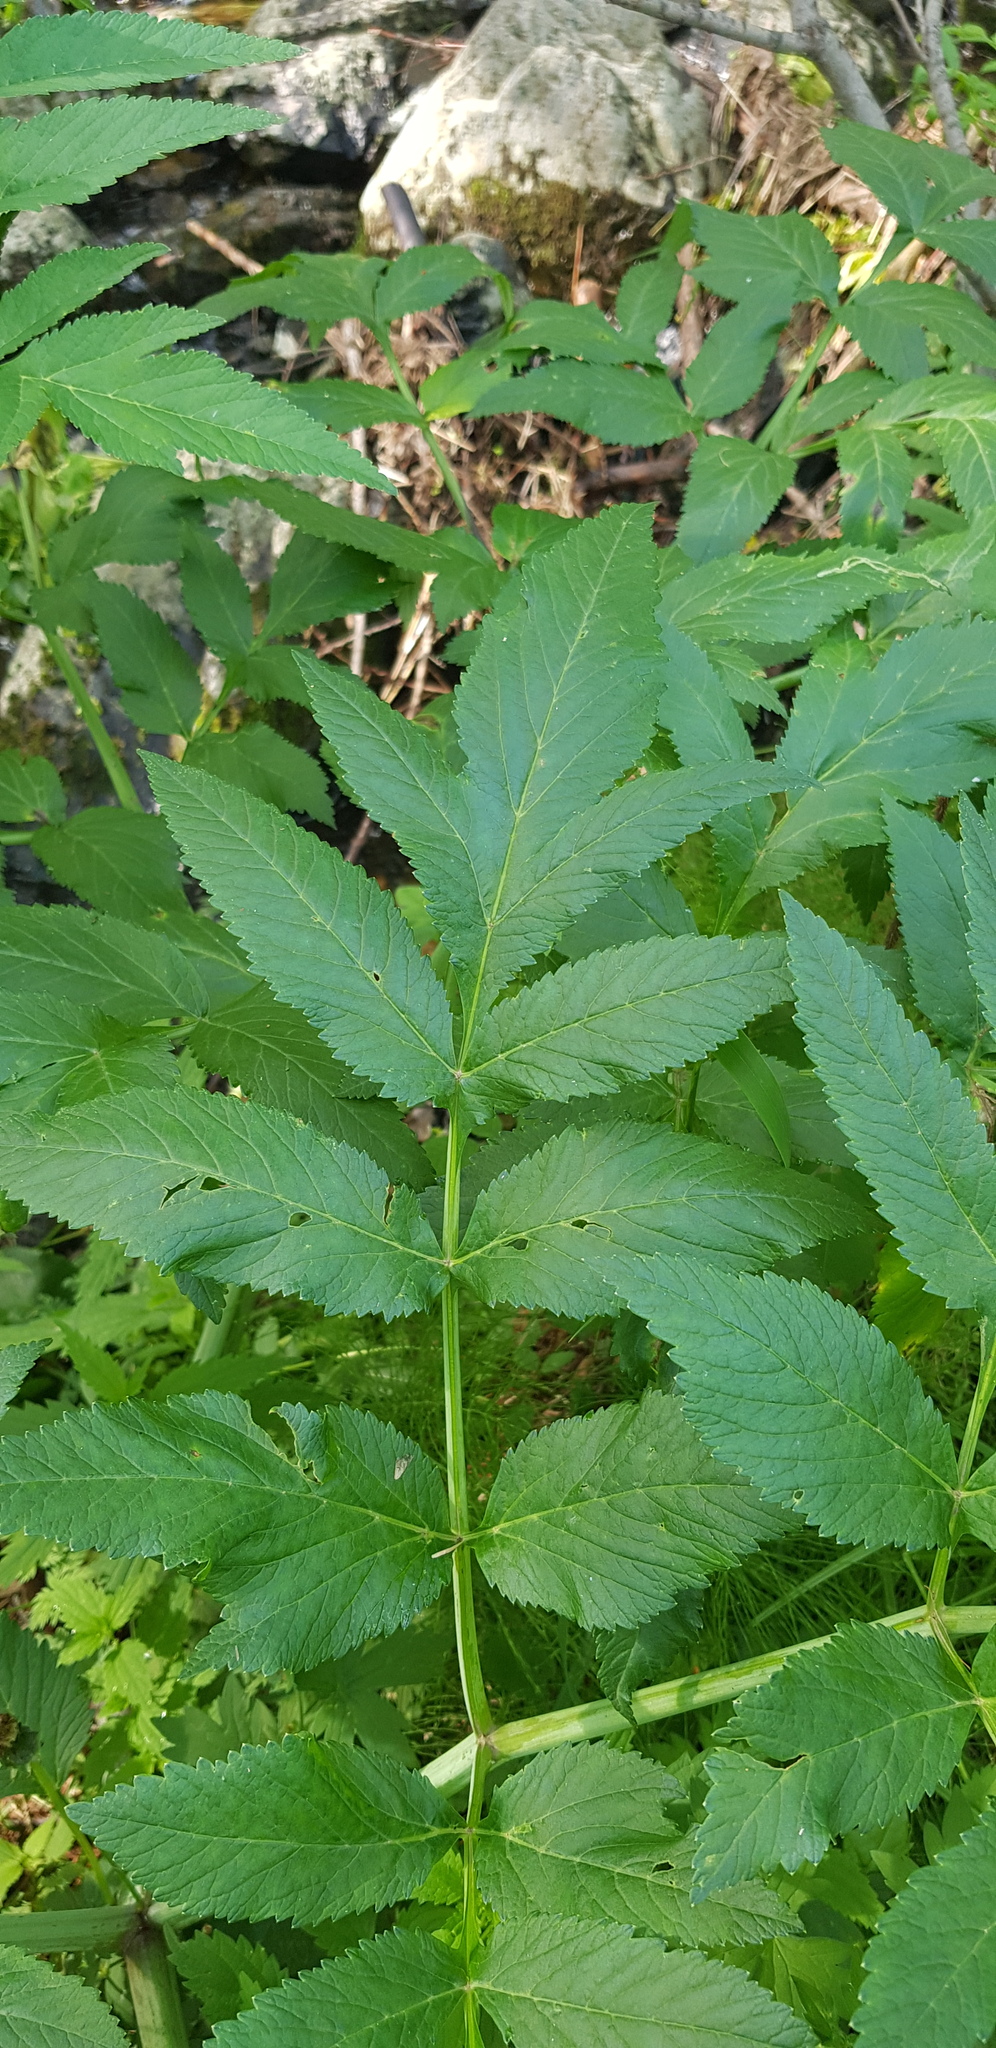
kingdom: Plantae
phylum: Tracheophyta
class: Magnoliopsida
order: Apiales
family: Apiaceae
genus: Angelica
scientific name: Angelica dahurica
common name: Dahurian angelica
